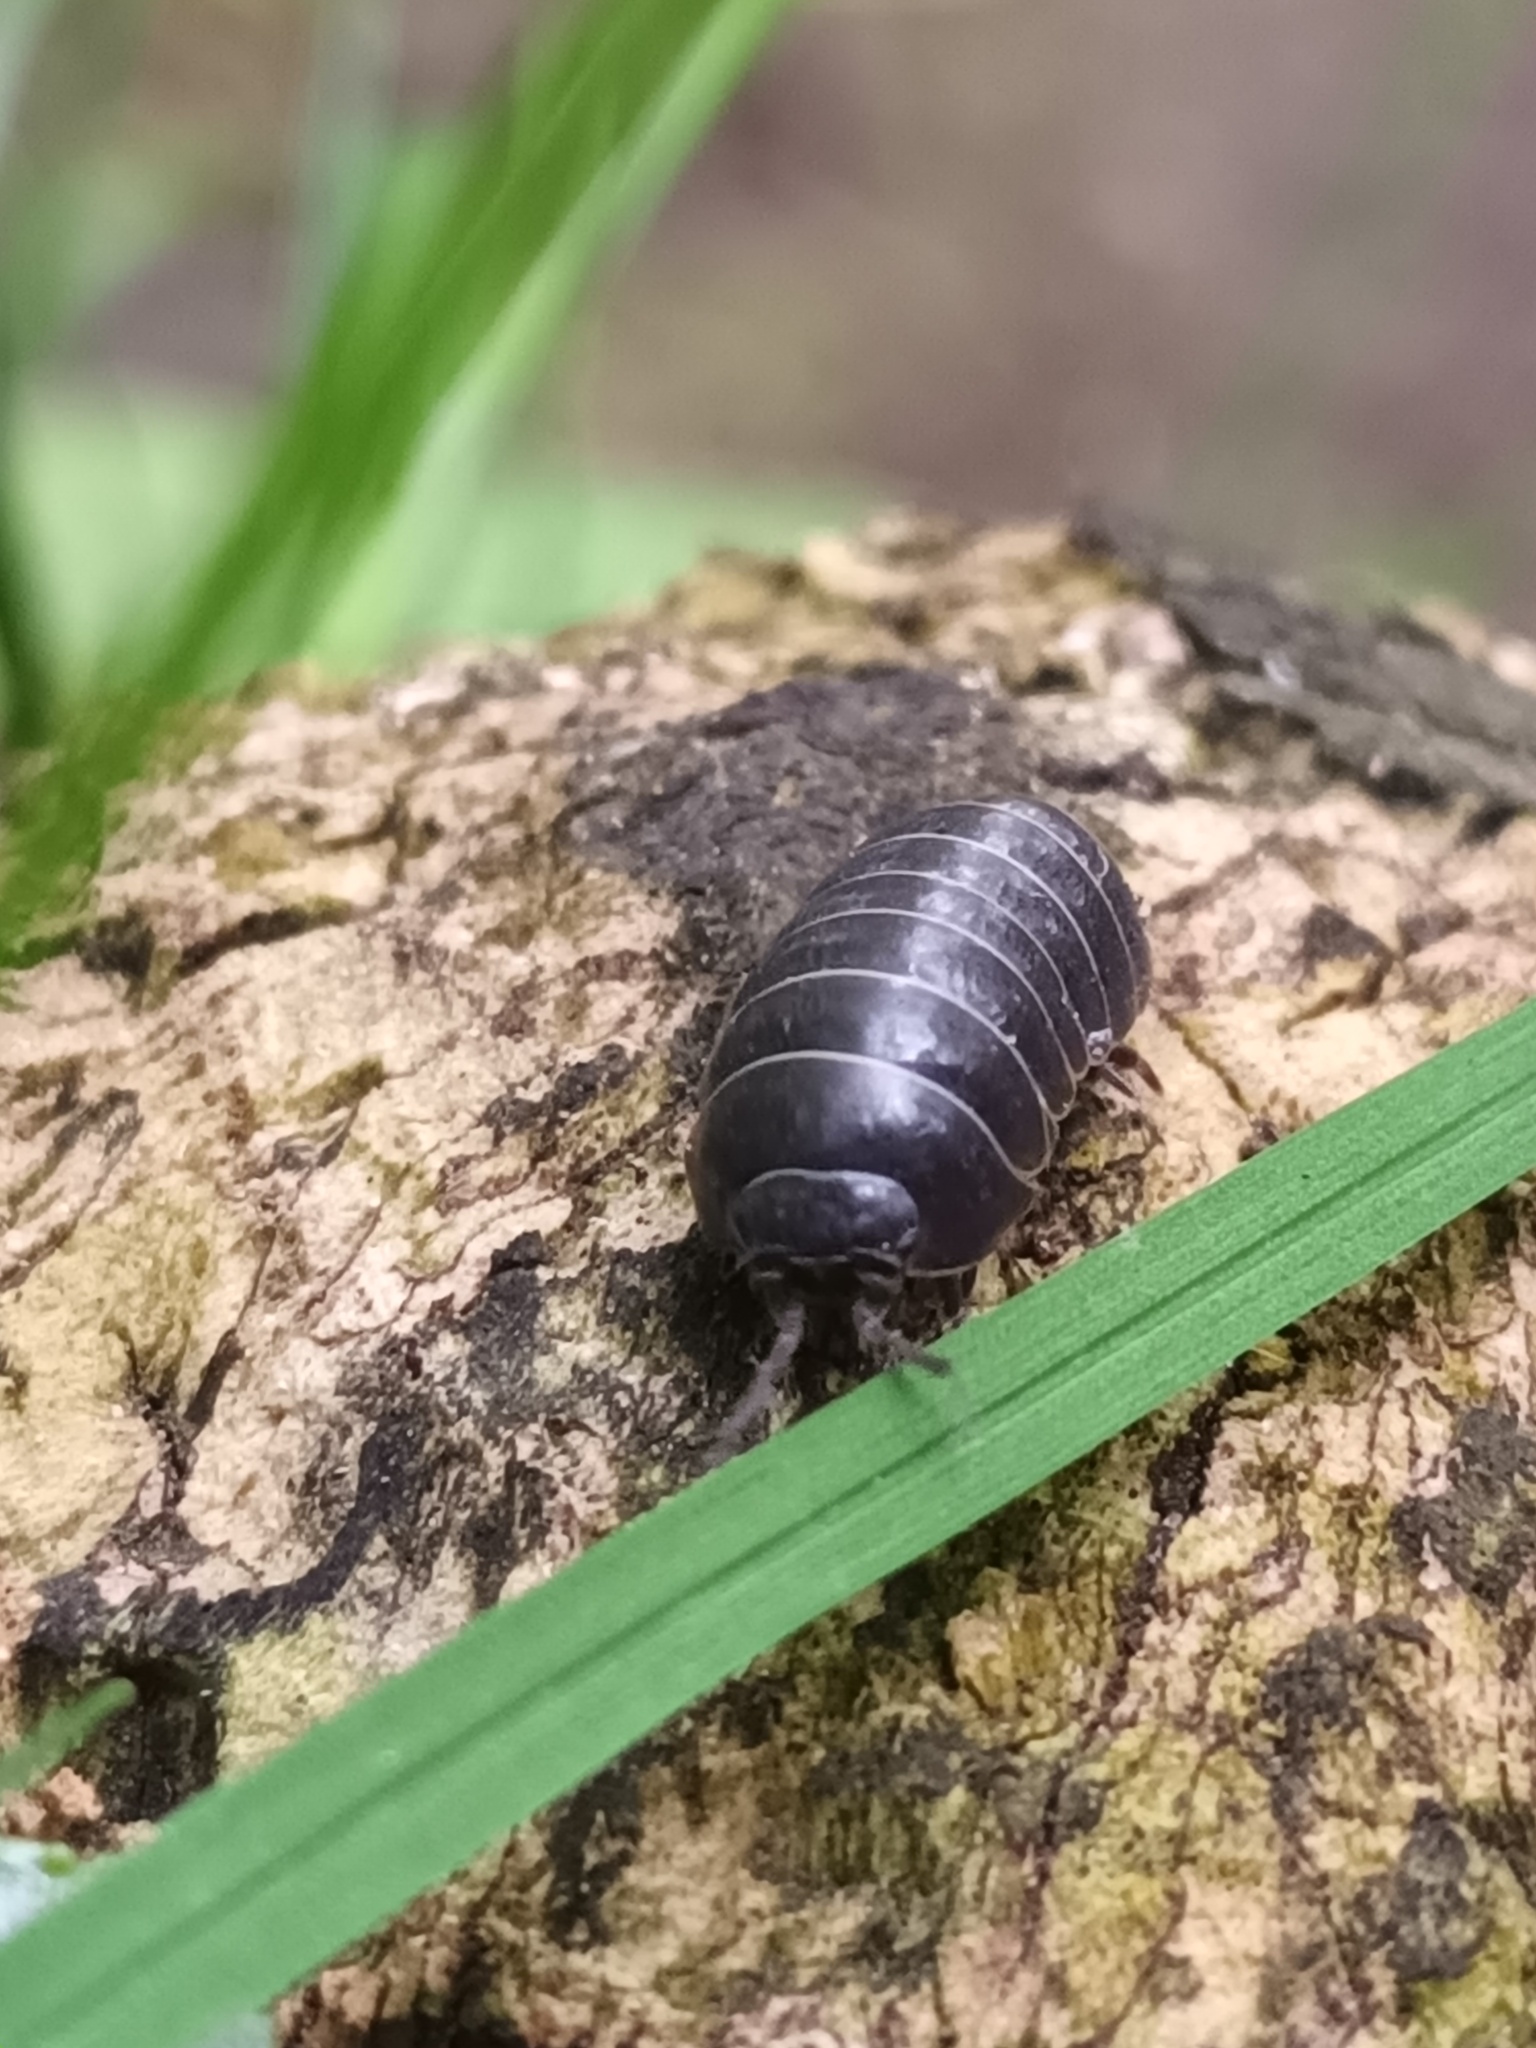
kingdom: Animalia
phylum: Arthropoda
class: Malacostraca
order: Isopoda
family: Armadillidiidae
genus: Armadillidium
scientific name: Armadillidium vulgare
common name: Common pill woodlouse
